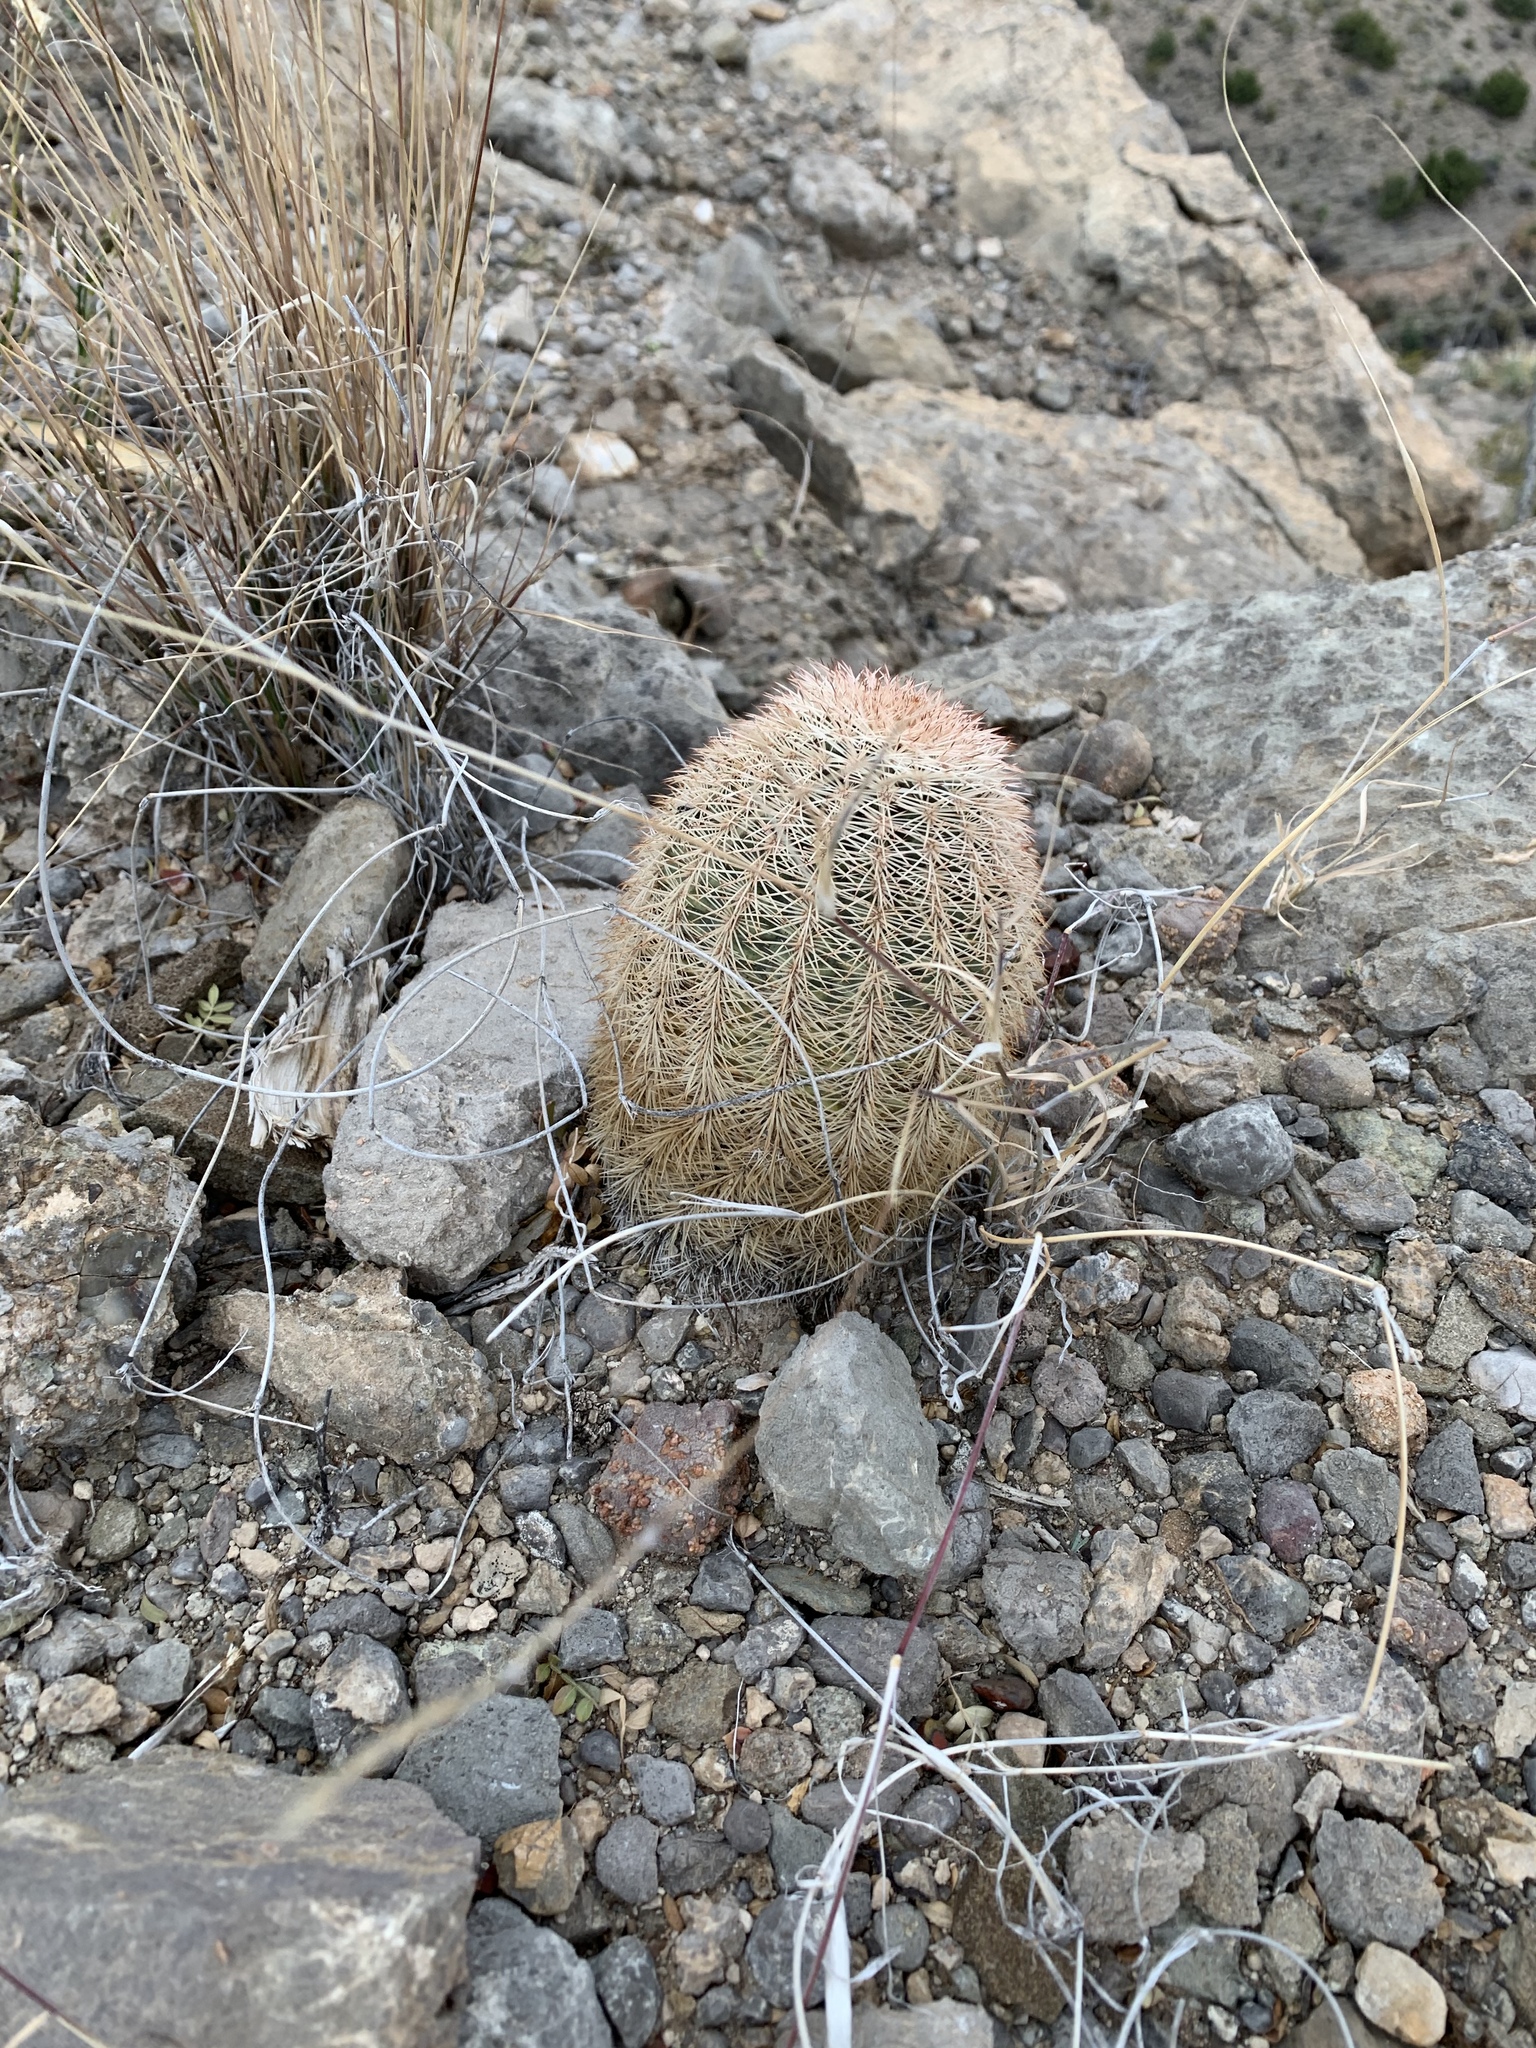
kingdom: Plantae
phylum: Tracheophyta
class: Magnoliopsida
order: Caryophyllales
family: Cactaceae
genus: Echinocereus
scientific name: Echinocereus dasyacanthus
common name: Spiny hedgehog cactus
